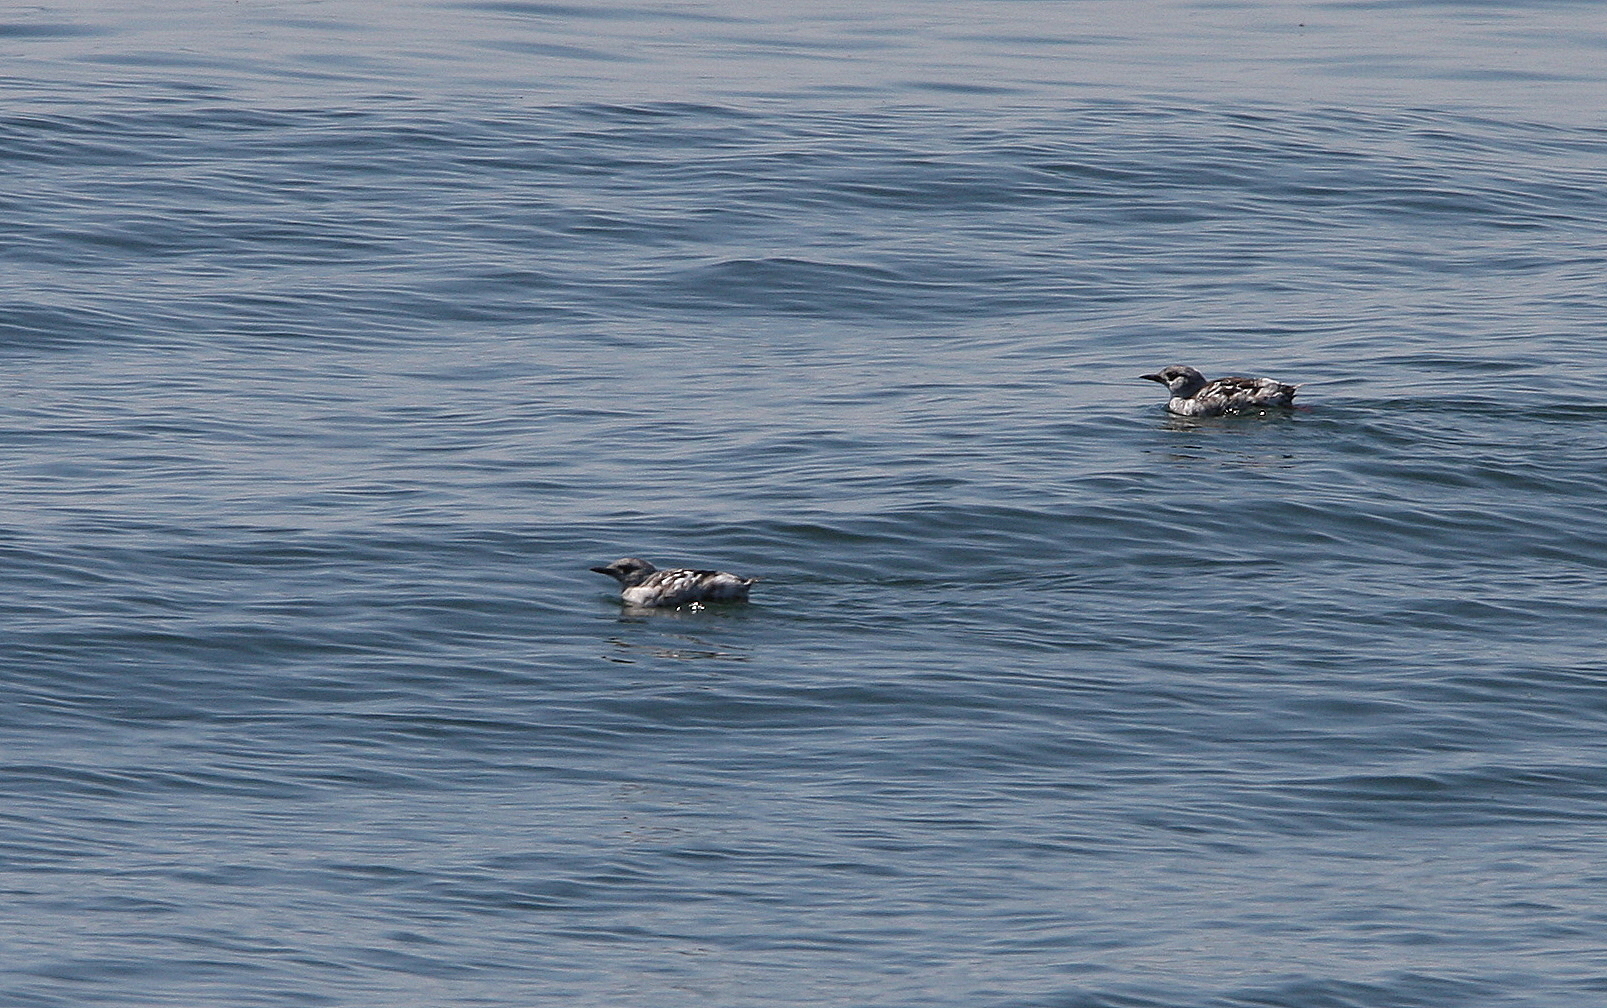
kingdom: Animalia
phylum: Chordata
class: Aves
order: Charadriiformes
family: Alcidae
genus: Cepphus
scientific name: Cepphus grylle
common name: Black guillemot
